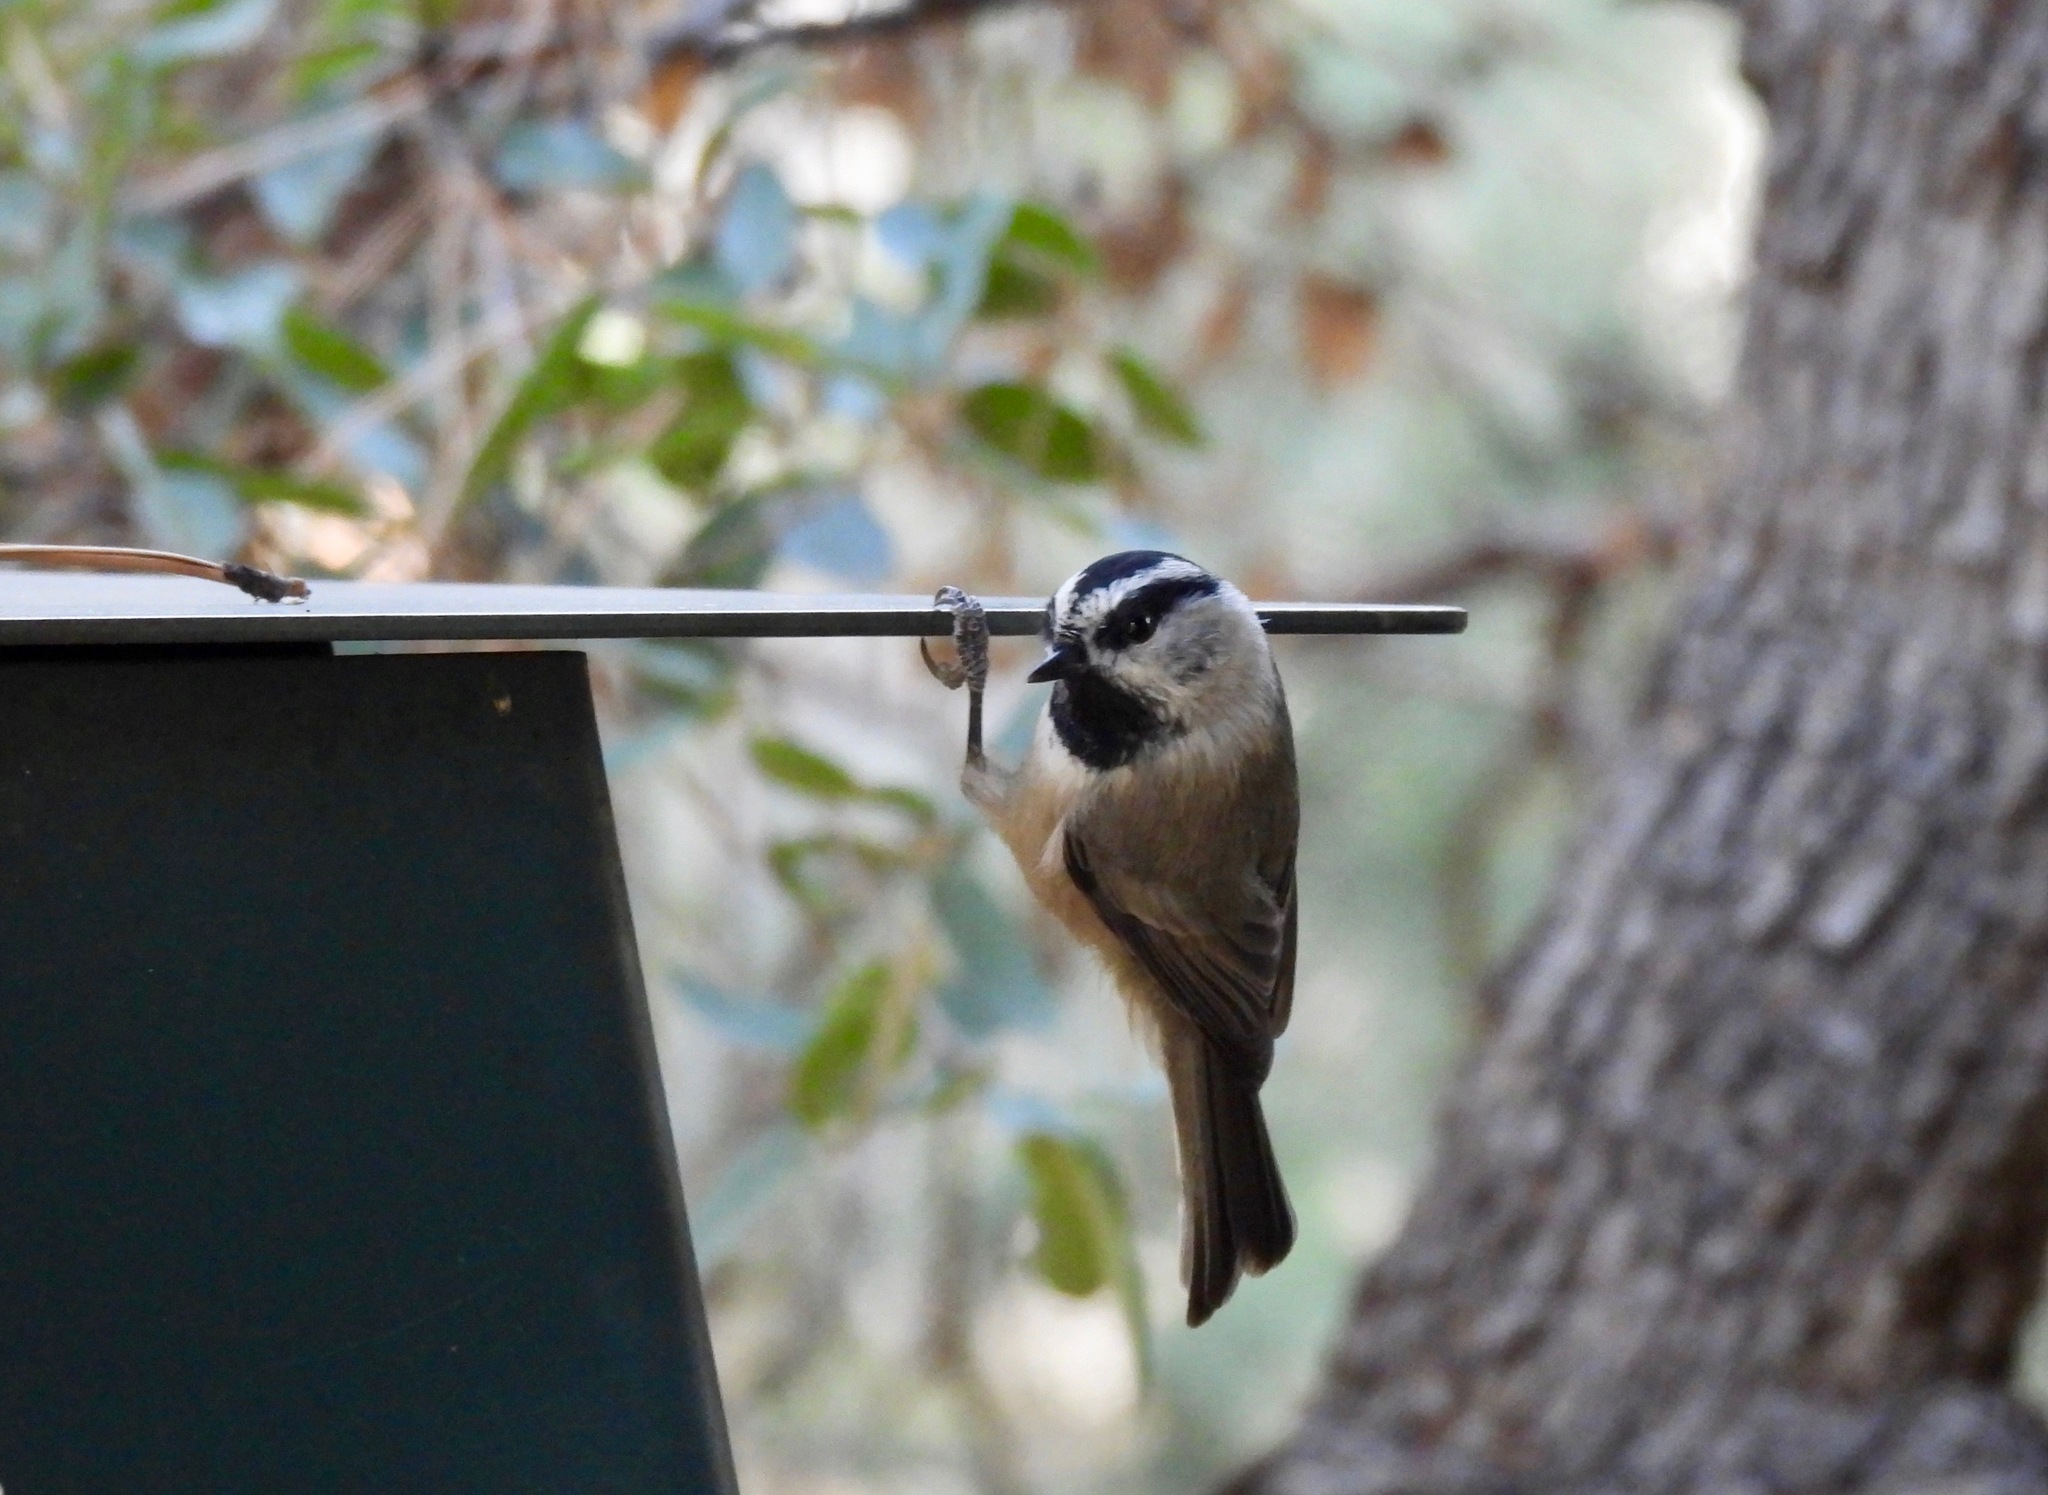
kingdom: Animalia
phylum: Chordata
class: Aves
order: Passeriformes
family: Paridae
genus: Poecile
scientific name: Poecile gambeli
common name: Mountain chickadee
